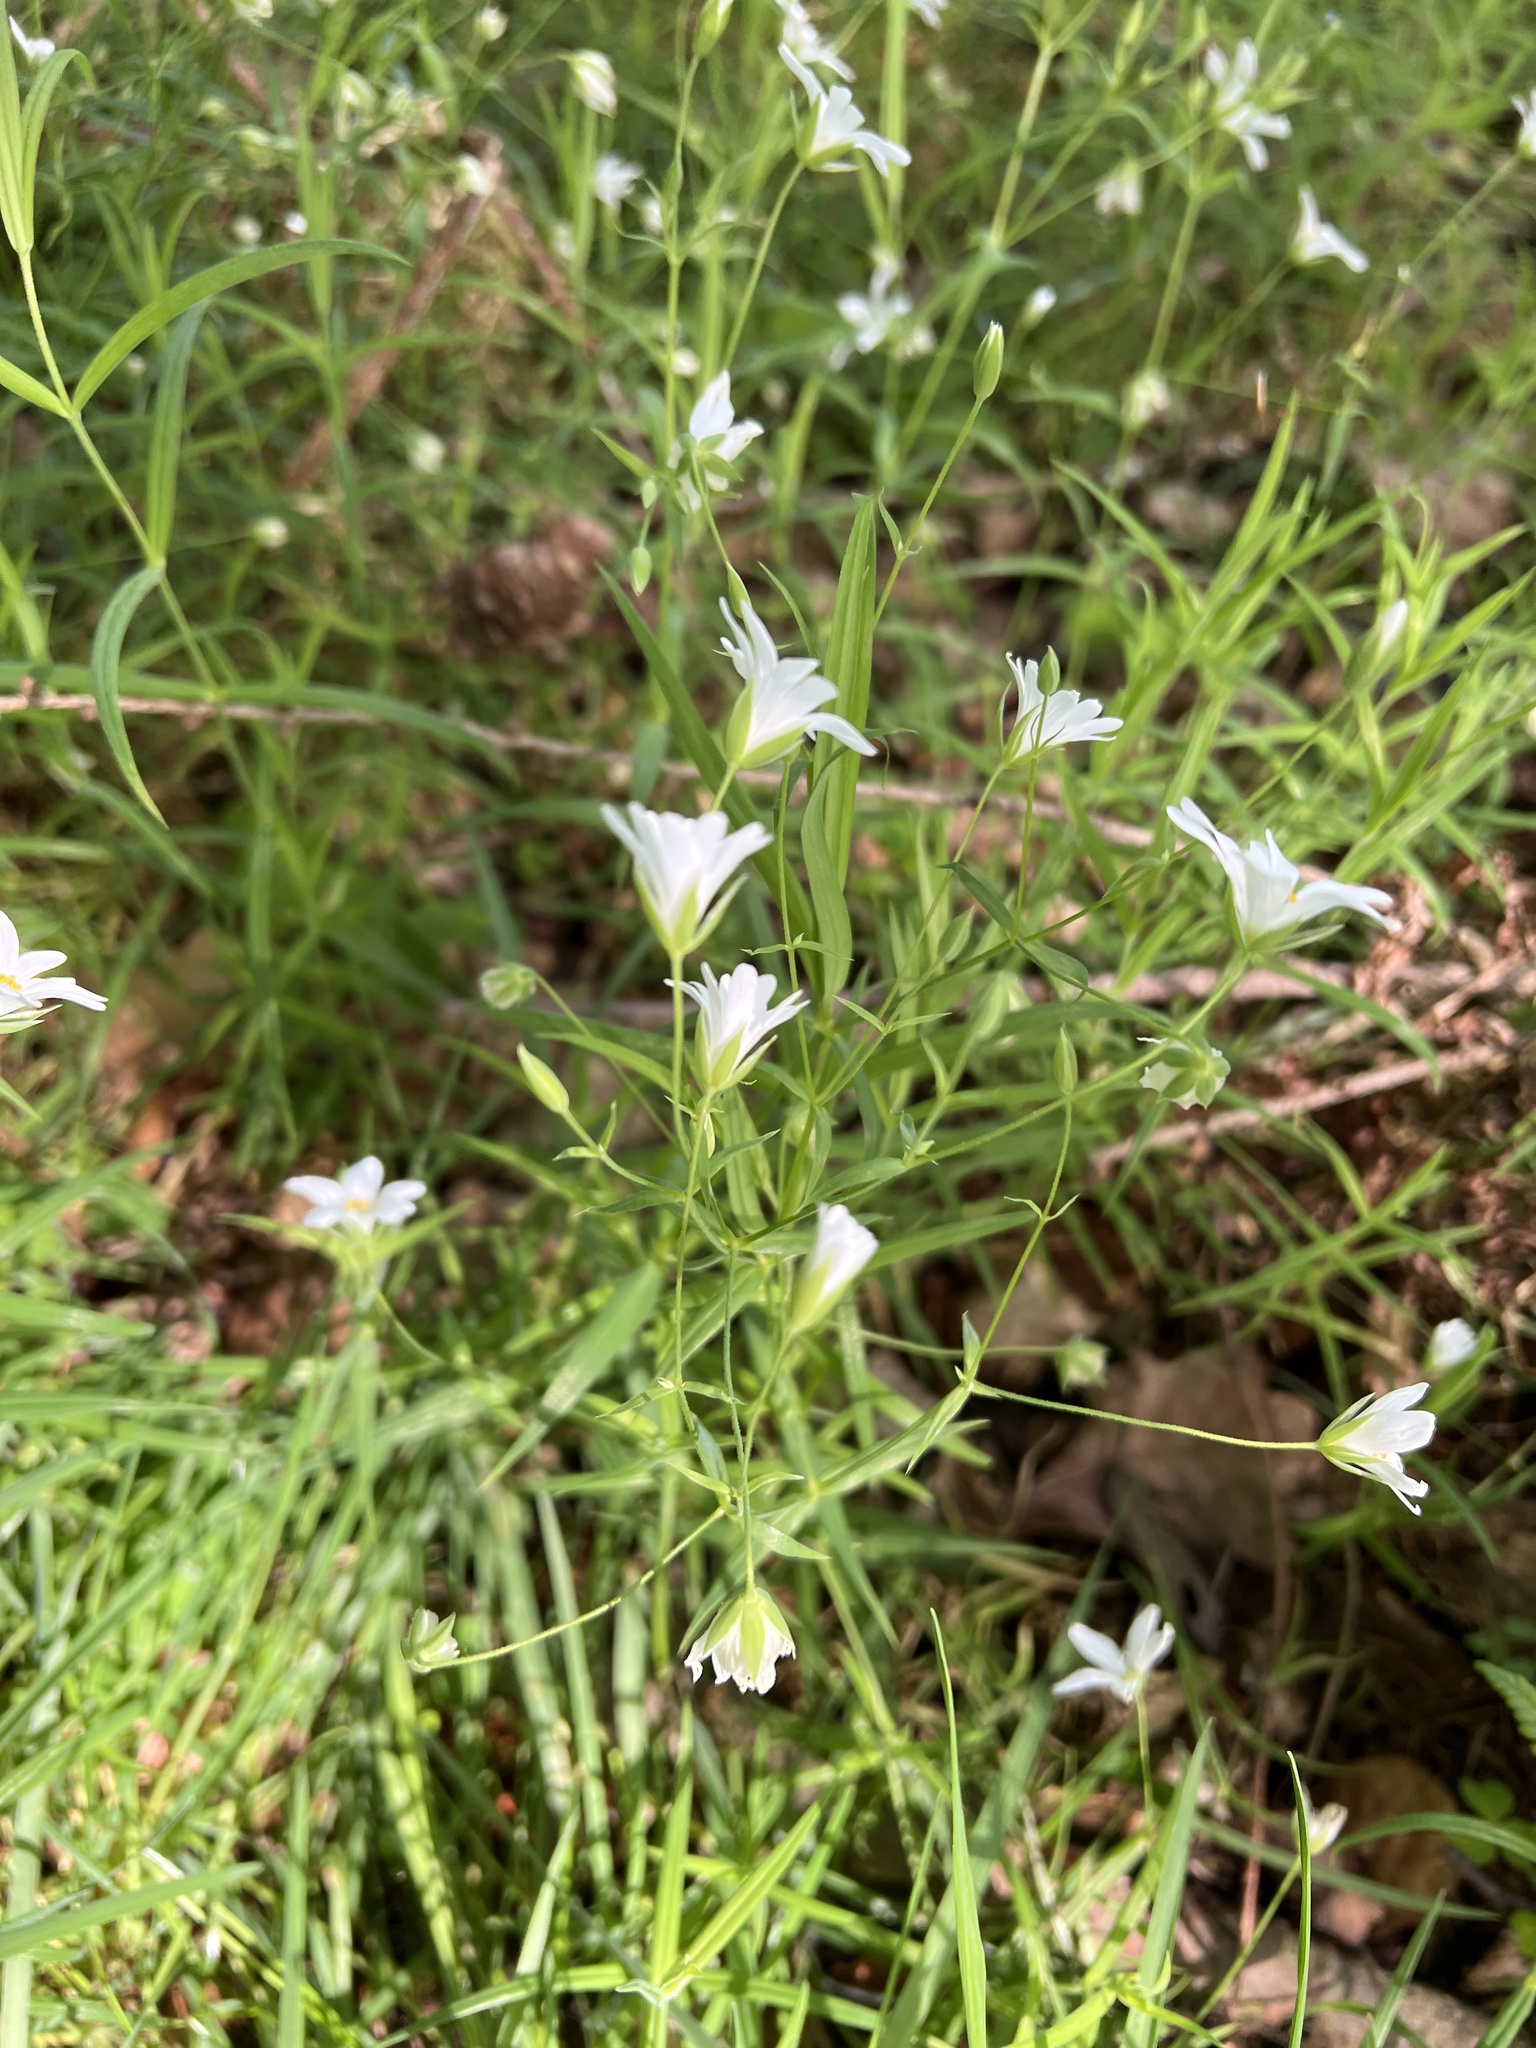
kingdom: Plantae
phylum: Tracheophyta
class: Magnoliopsida
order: Caryophyllales
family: Caryophyllaceae
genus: Rabelera
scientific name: Rabelera holostea
